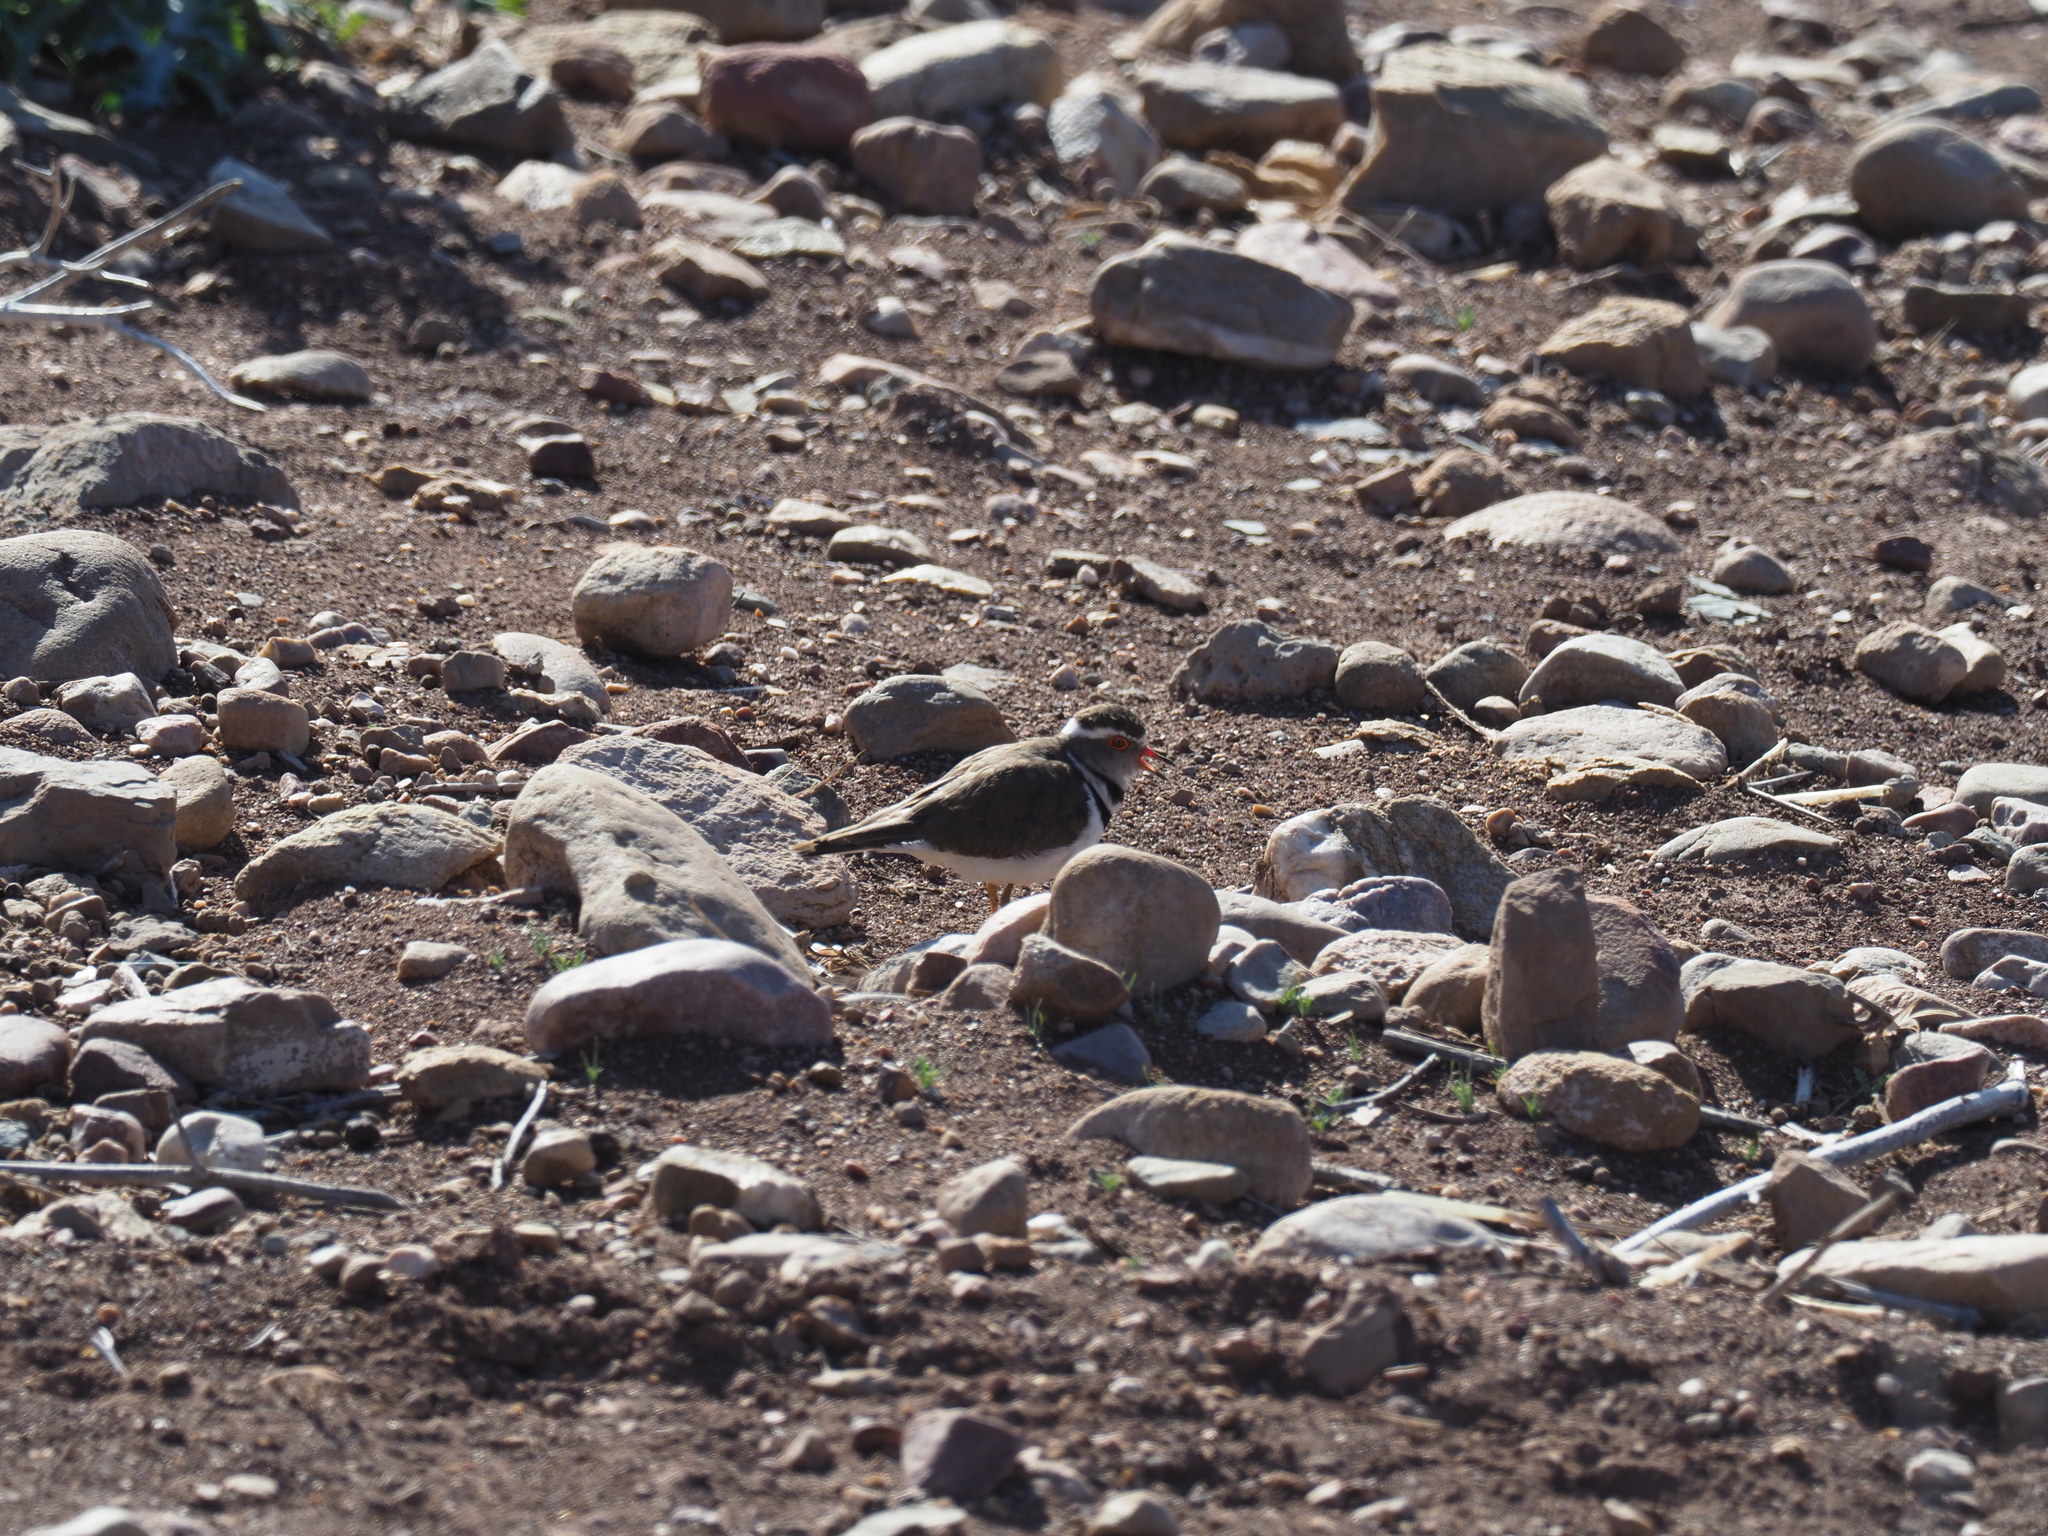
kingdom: Animalia
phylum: Chordata
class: Aves
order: Charadriiformes
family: Charadriidae
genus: Charadrius
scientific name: Charadrius tricollaris
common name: Three-banded plover
